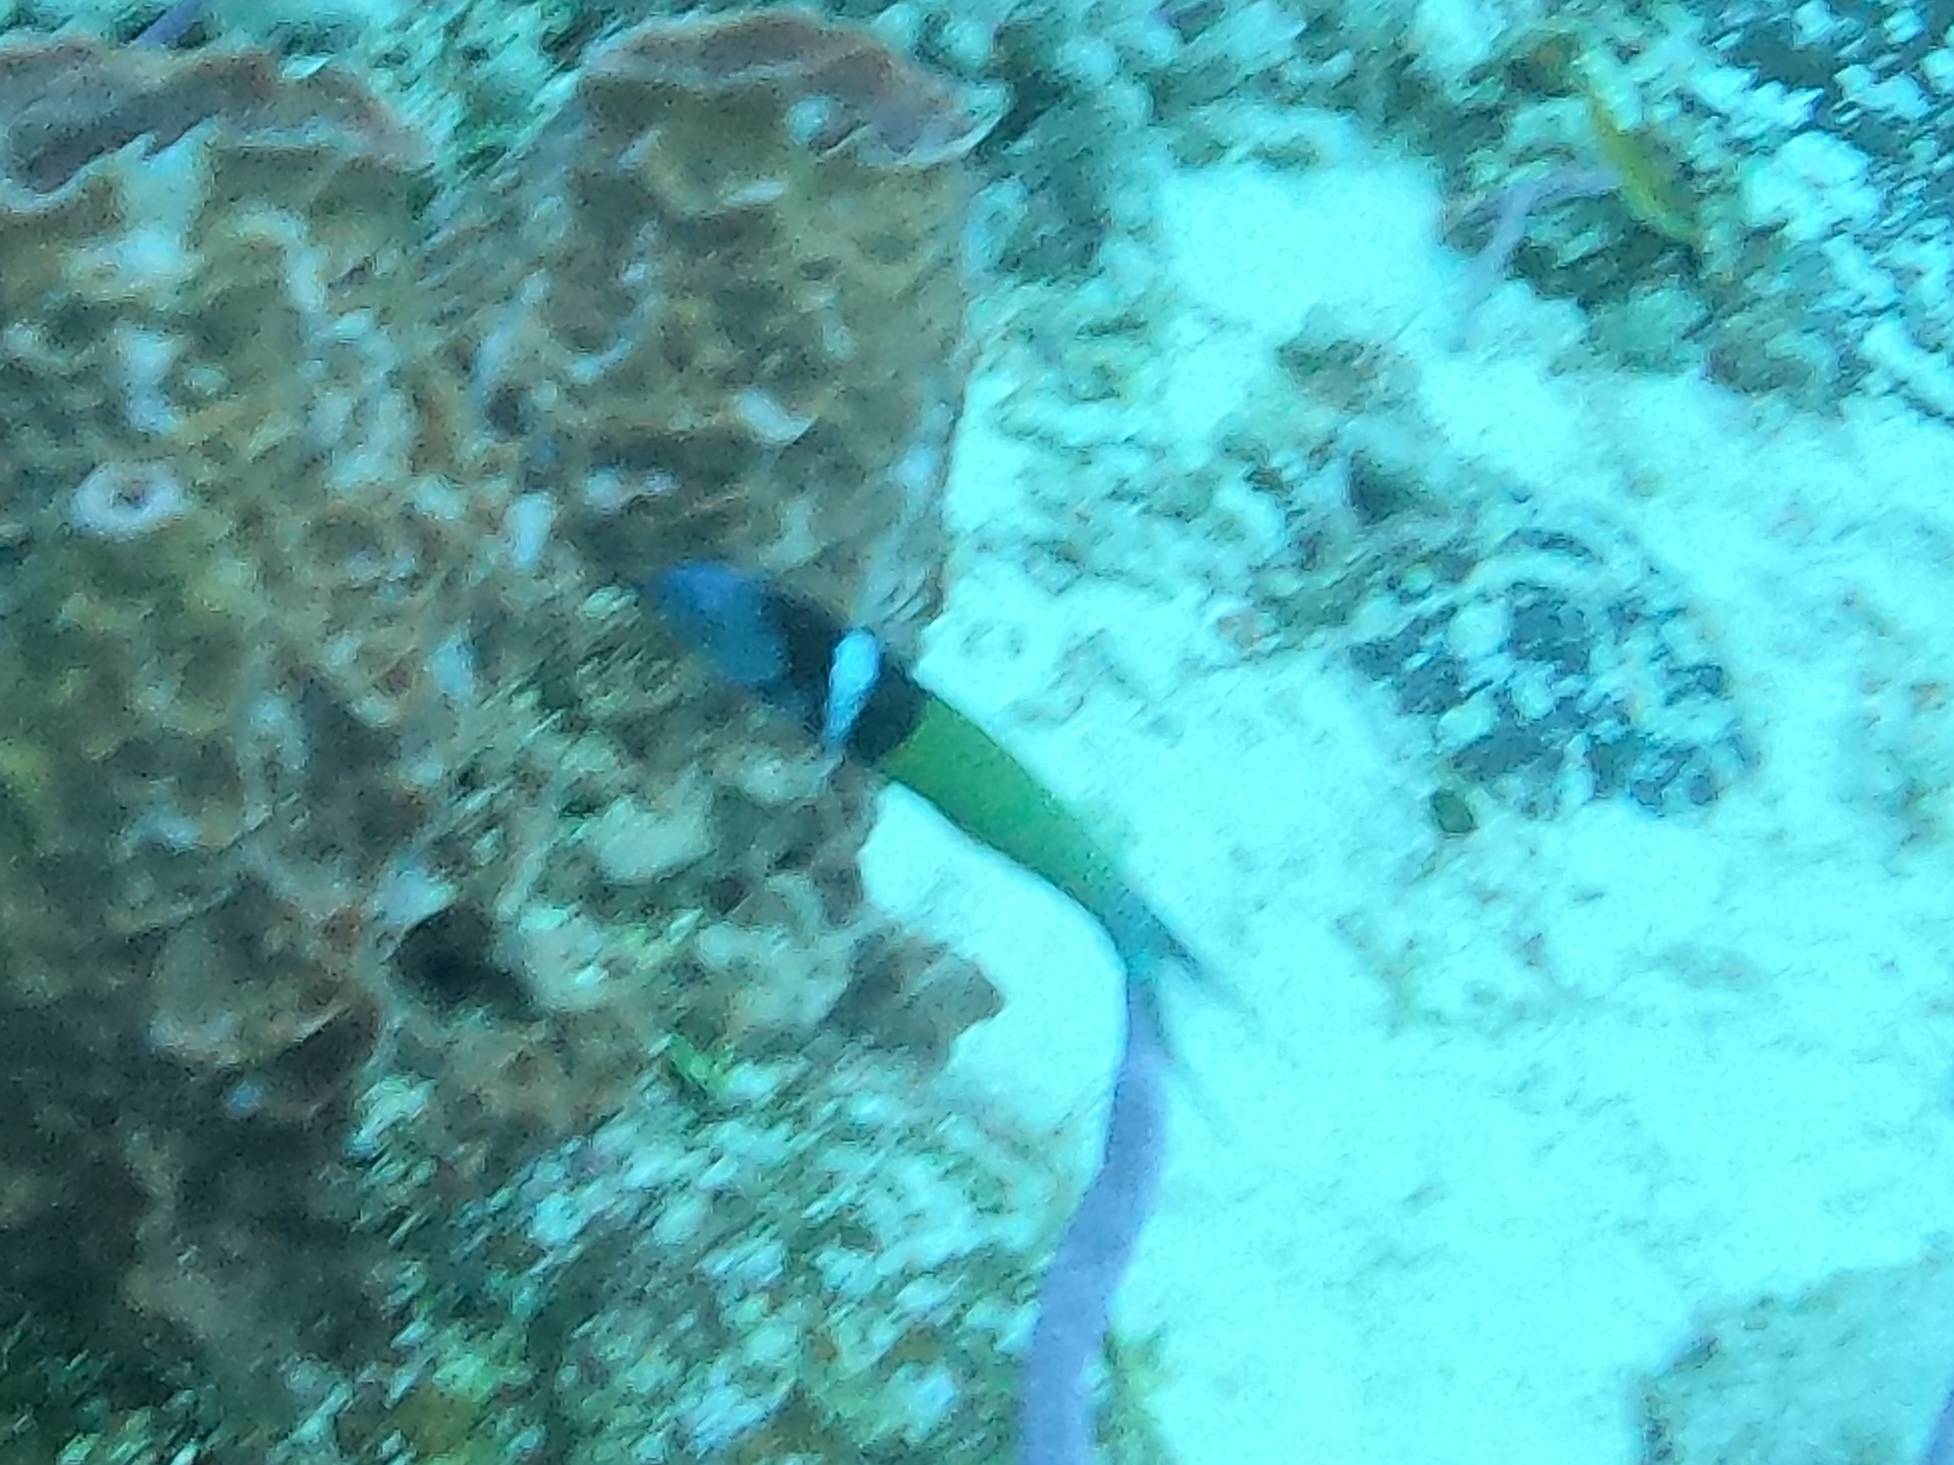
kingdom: Animalia
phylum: Chordata
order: Perciformes
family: Labridae
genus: Thalassoma
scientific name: Thalassoma bifasciatum
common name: Bluehead wrasse
